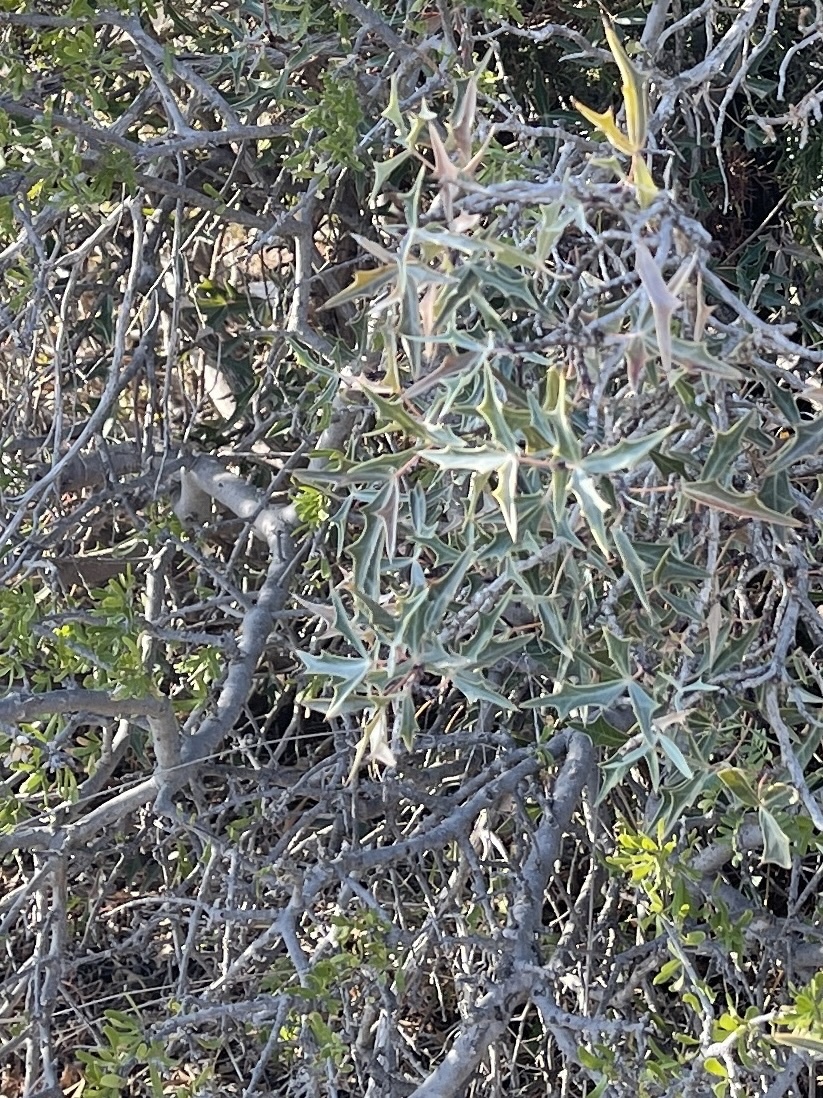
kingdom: Plantae
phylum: Tracheophyta
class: Magnoliopsida
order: Ranunculales
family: Berberidaceae
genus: Alloberberis
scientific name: Alloberberis trifoliolata
